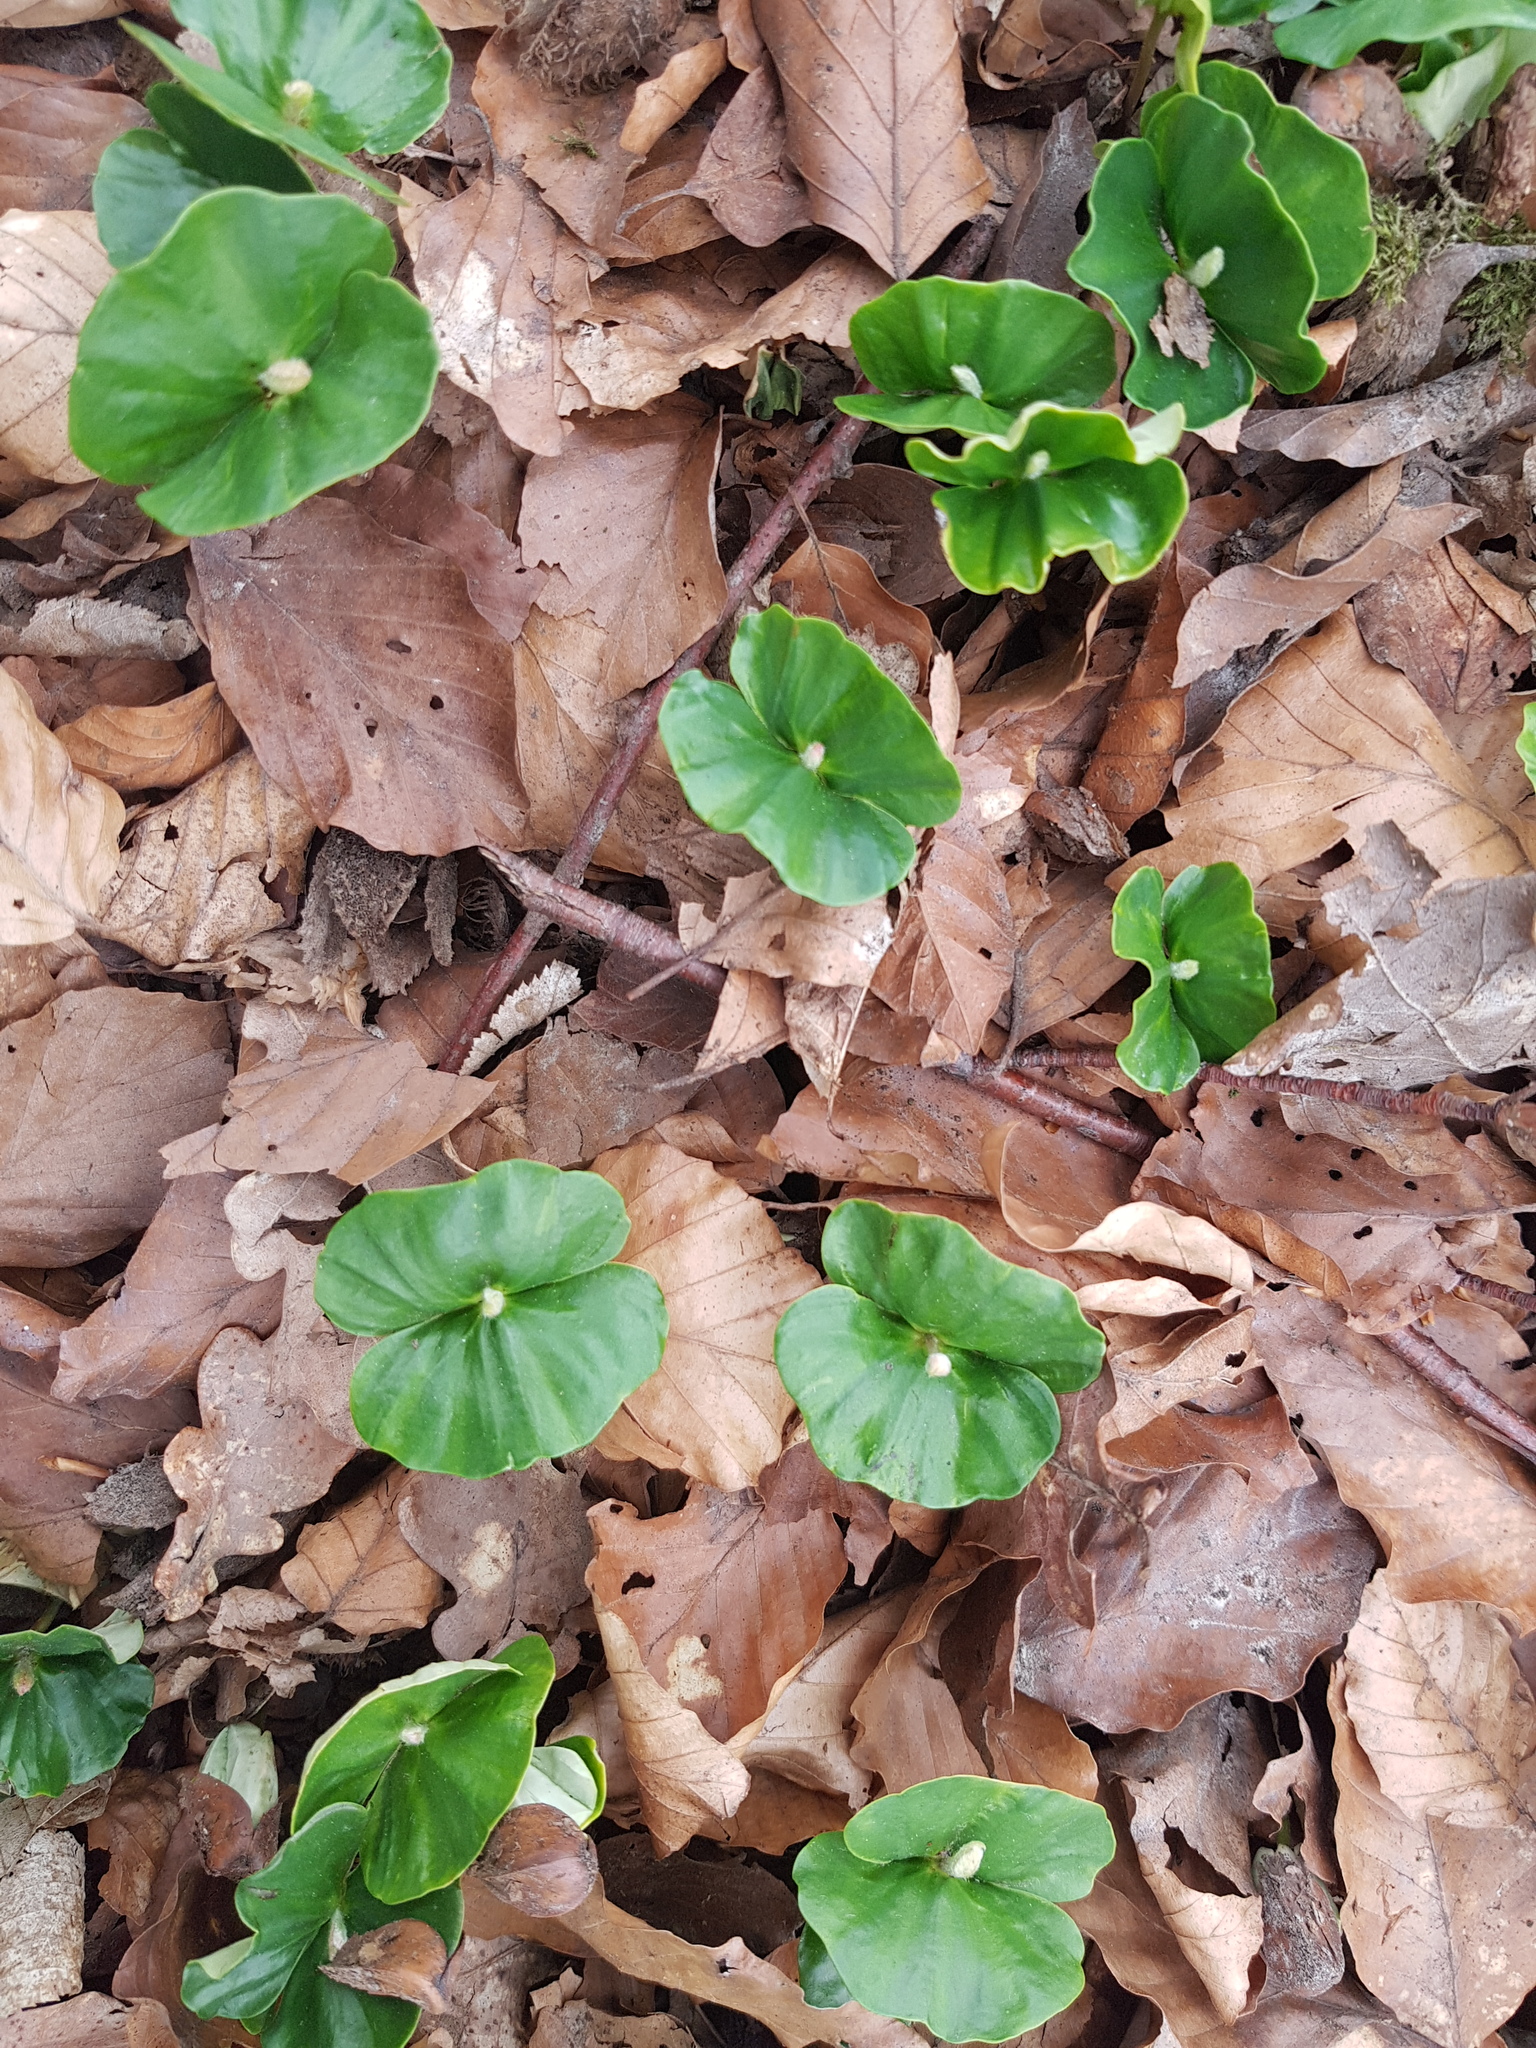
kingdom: Plantae
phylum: Tracheophyta
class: Magnoliopsida
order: Fagales
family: Fagaceae
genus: Fagus
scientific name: Fagus sylvatica
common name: Beech
